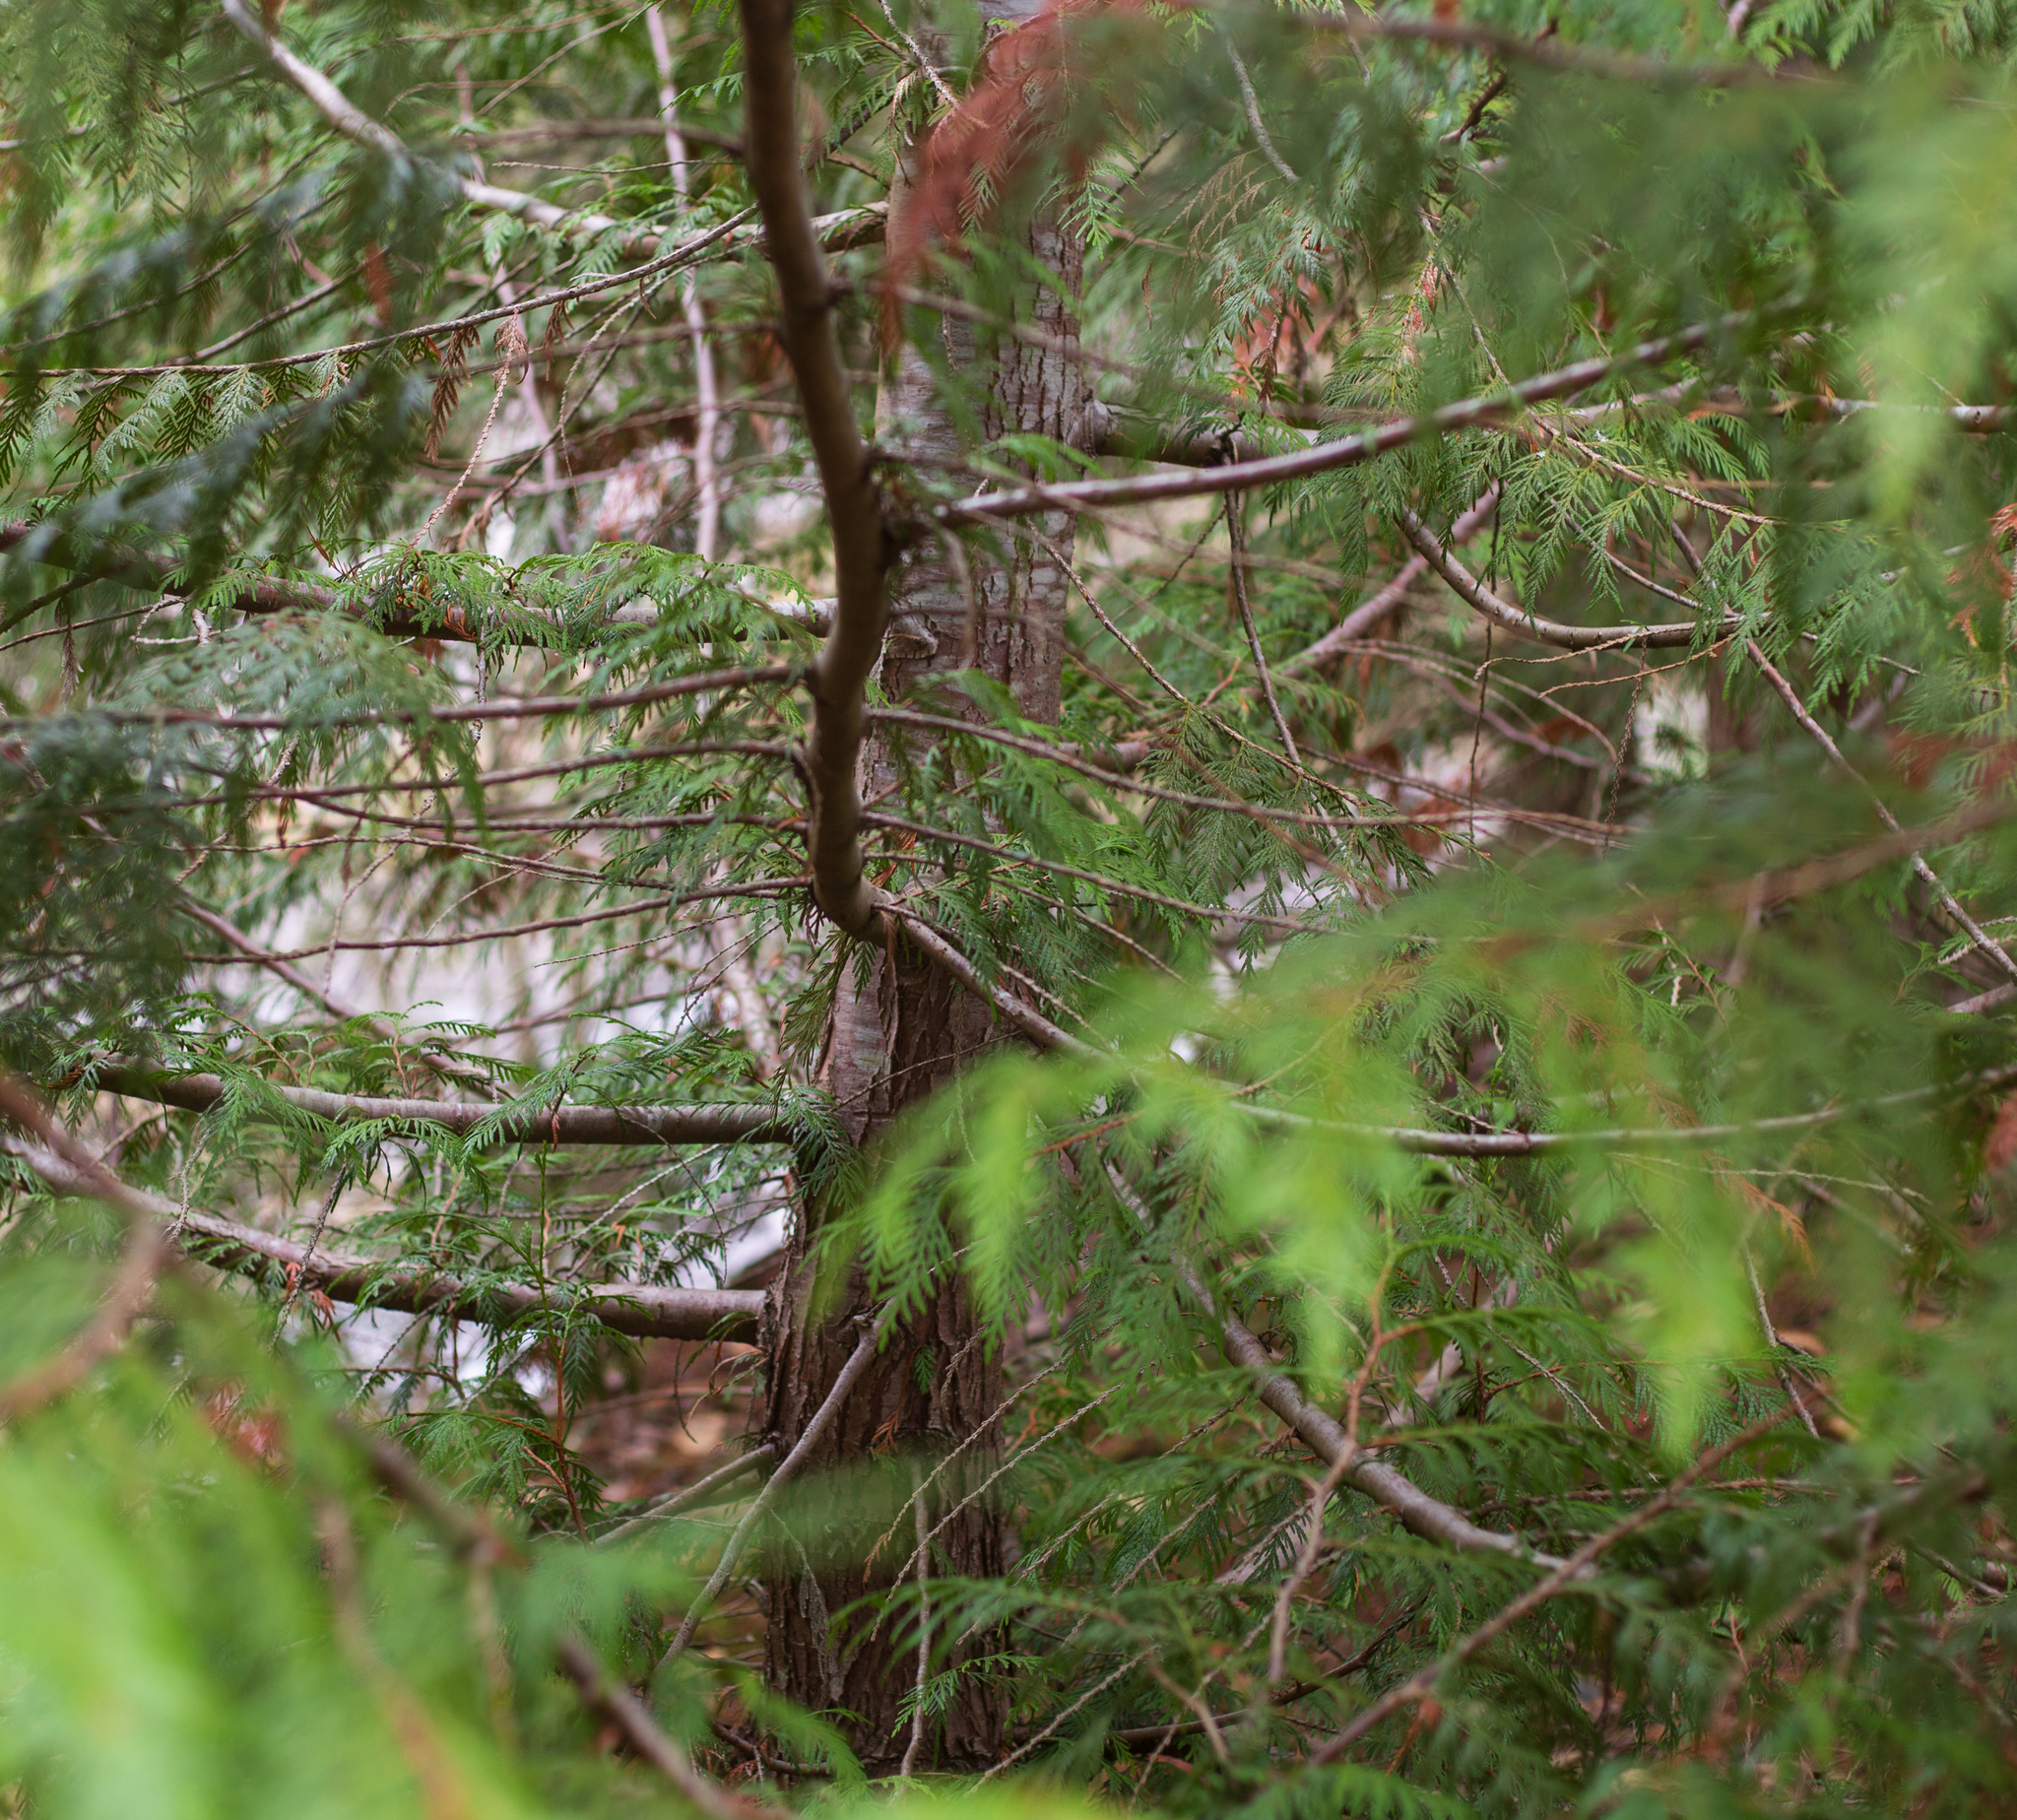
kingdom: Plantae
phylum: Tracheophyta
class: Pinopsida
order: Pinales
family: Cupressaceae
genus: Thuja
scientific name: Thuja plicata
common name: Western red-cedar
